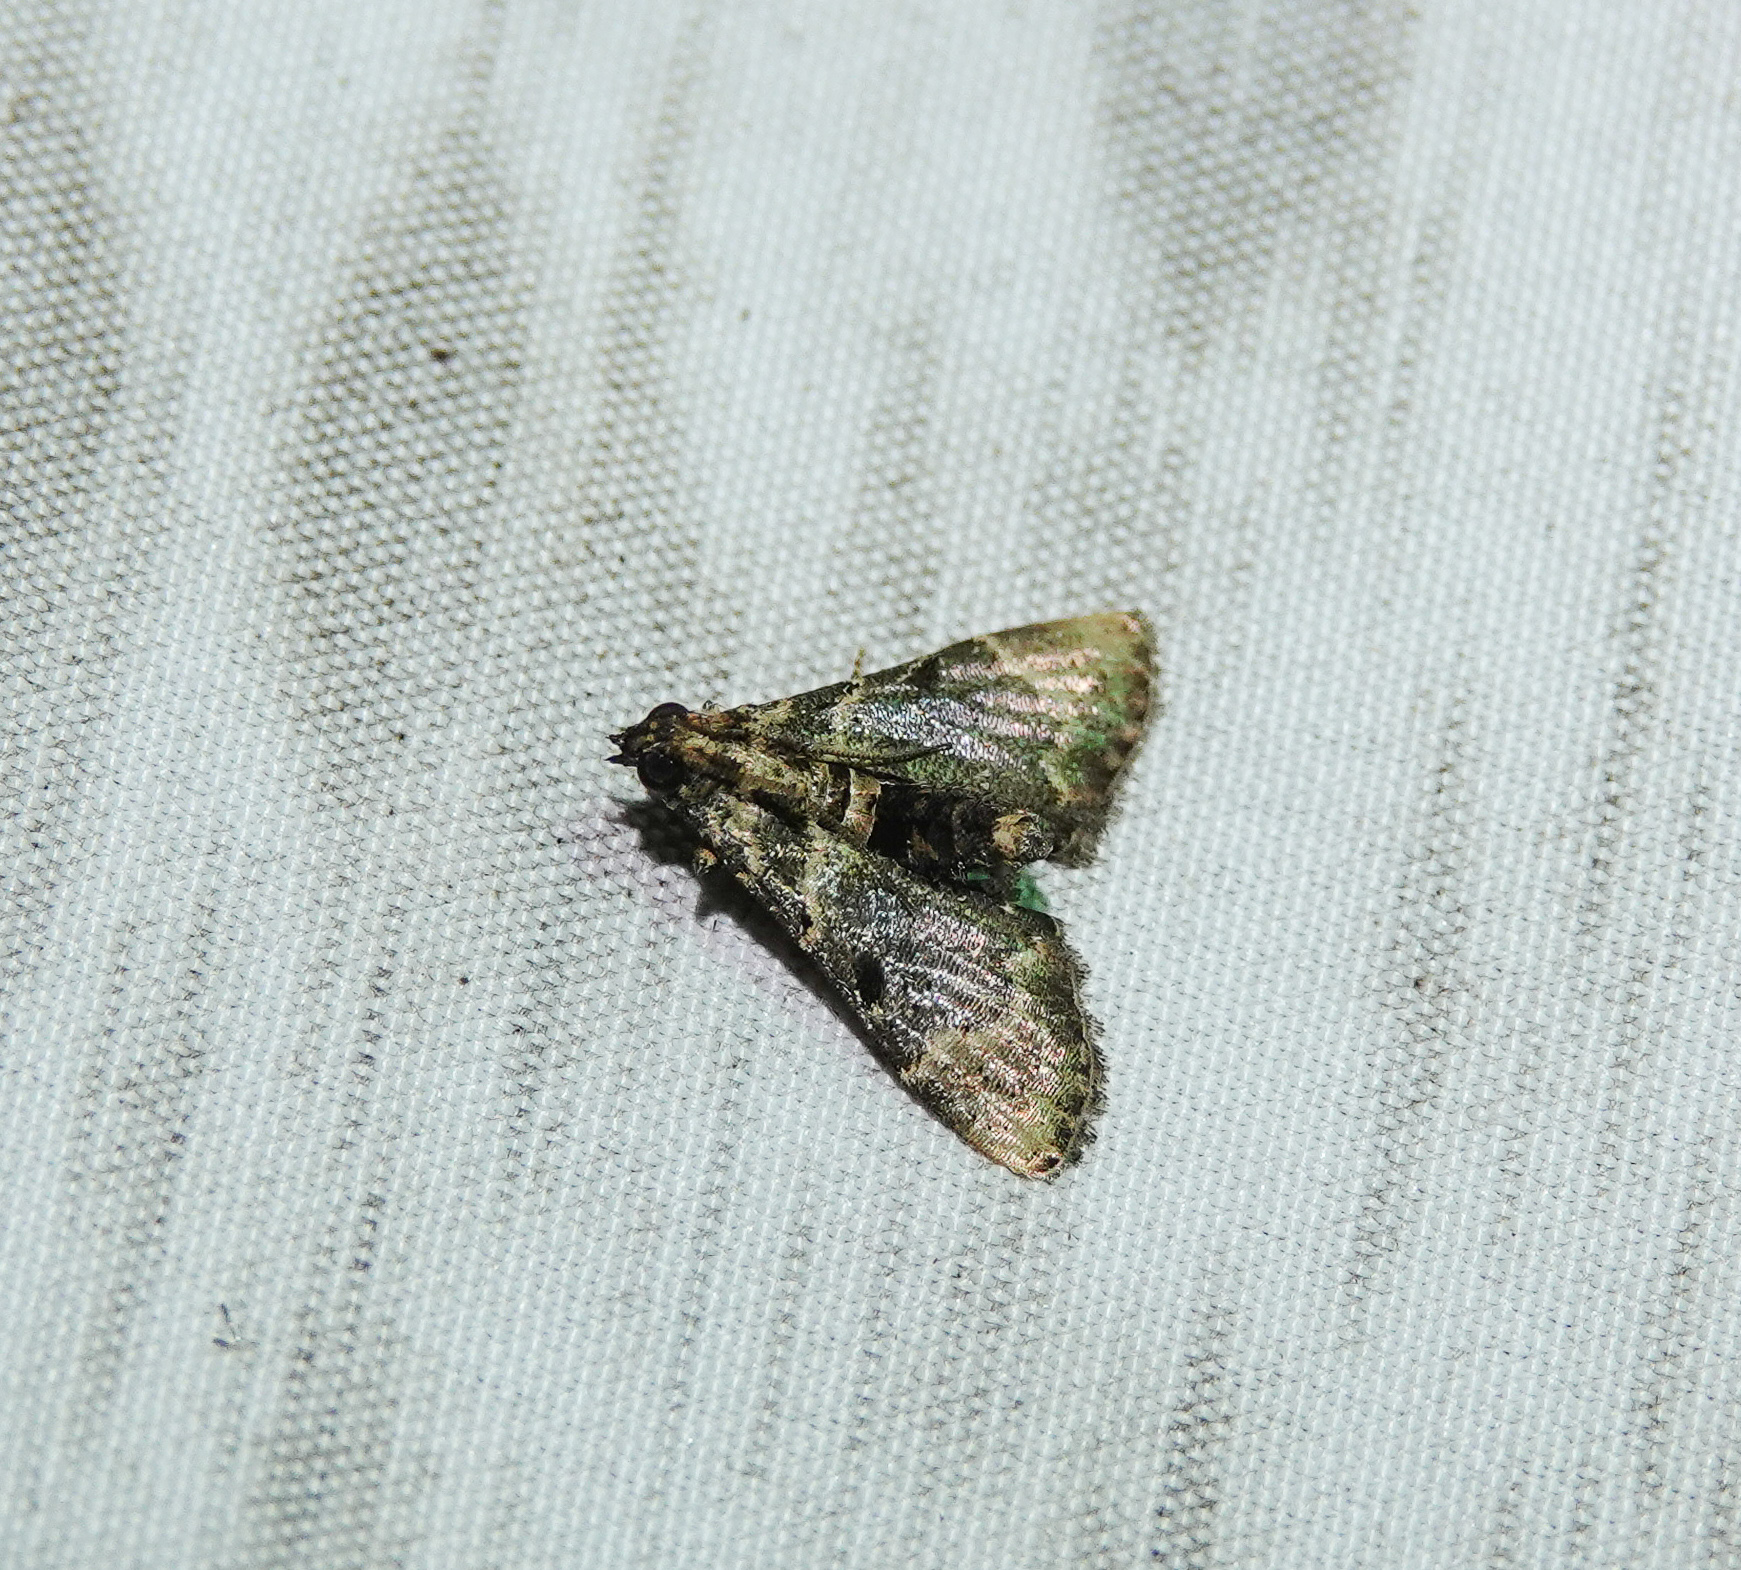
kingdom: Animalia
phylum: Arthropoda
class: Insecta
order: Lepidoptera
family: Pyralidae
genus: Orthaga
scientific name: Orthaga thyrisalis
